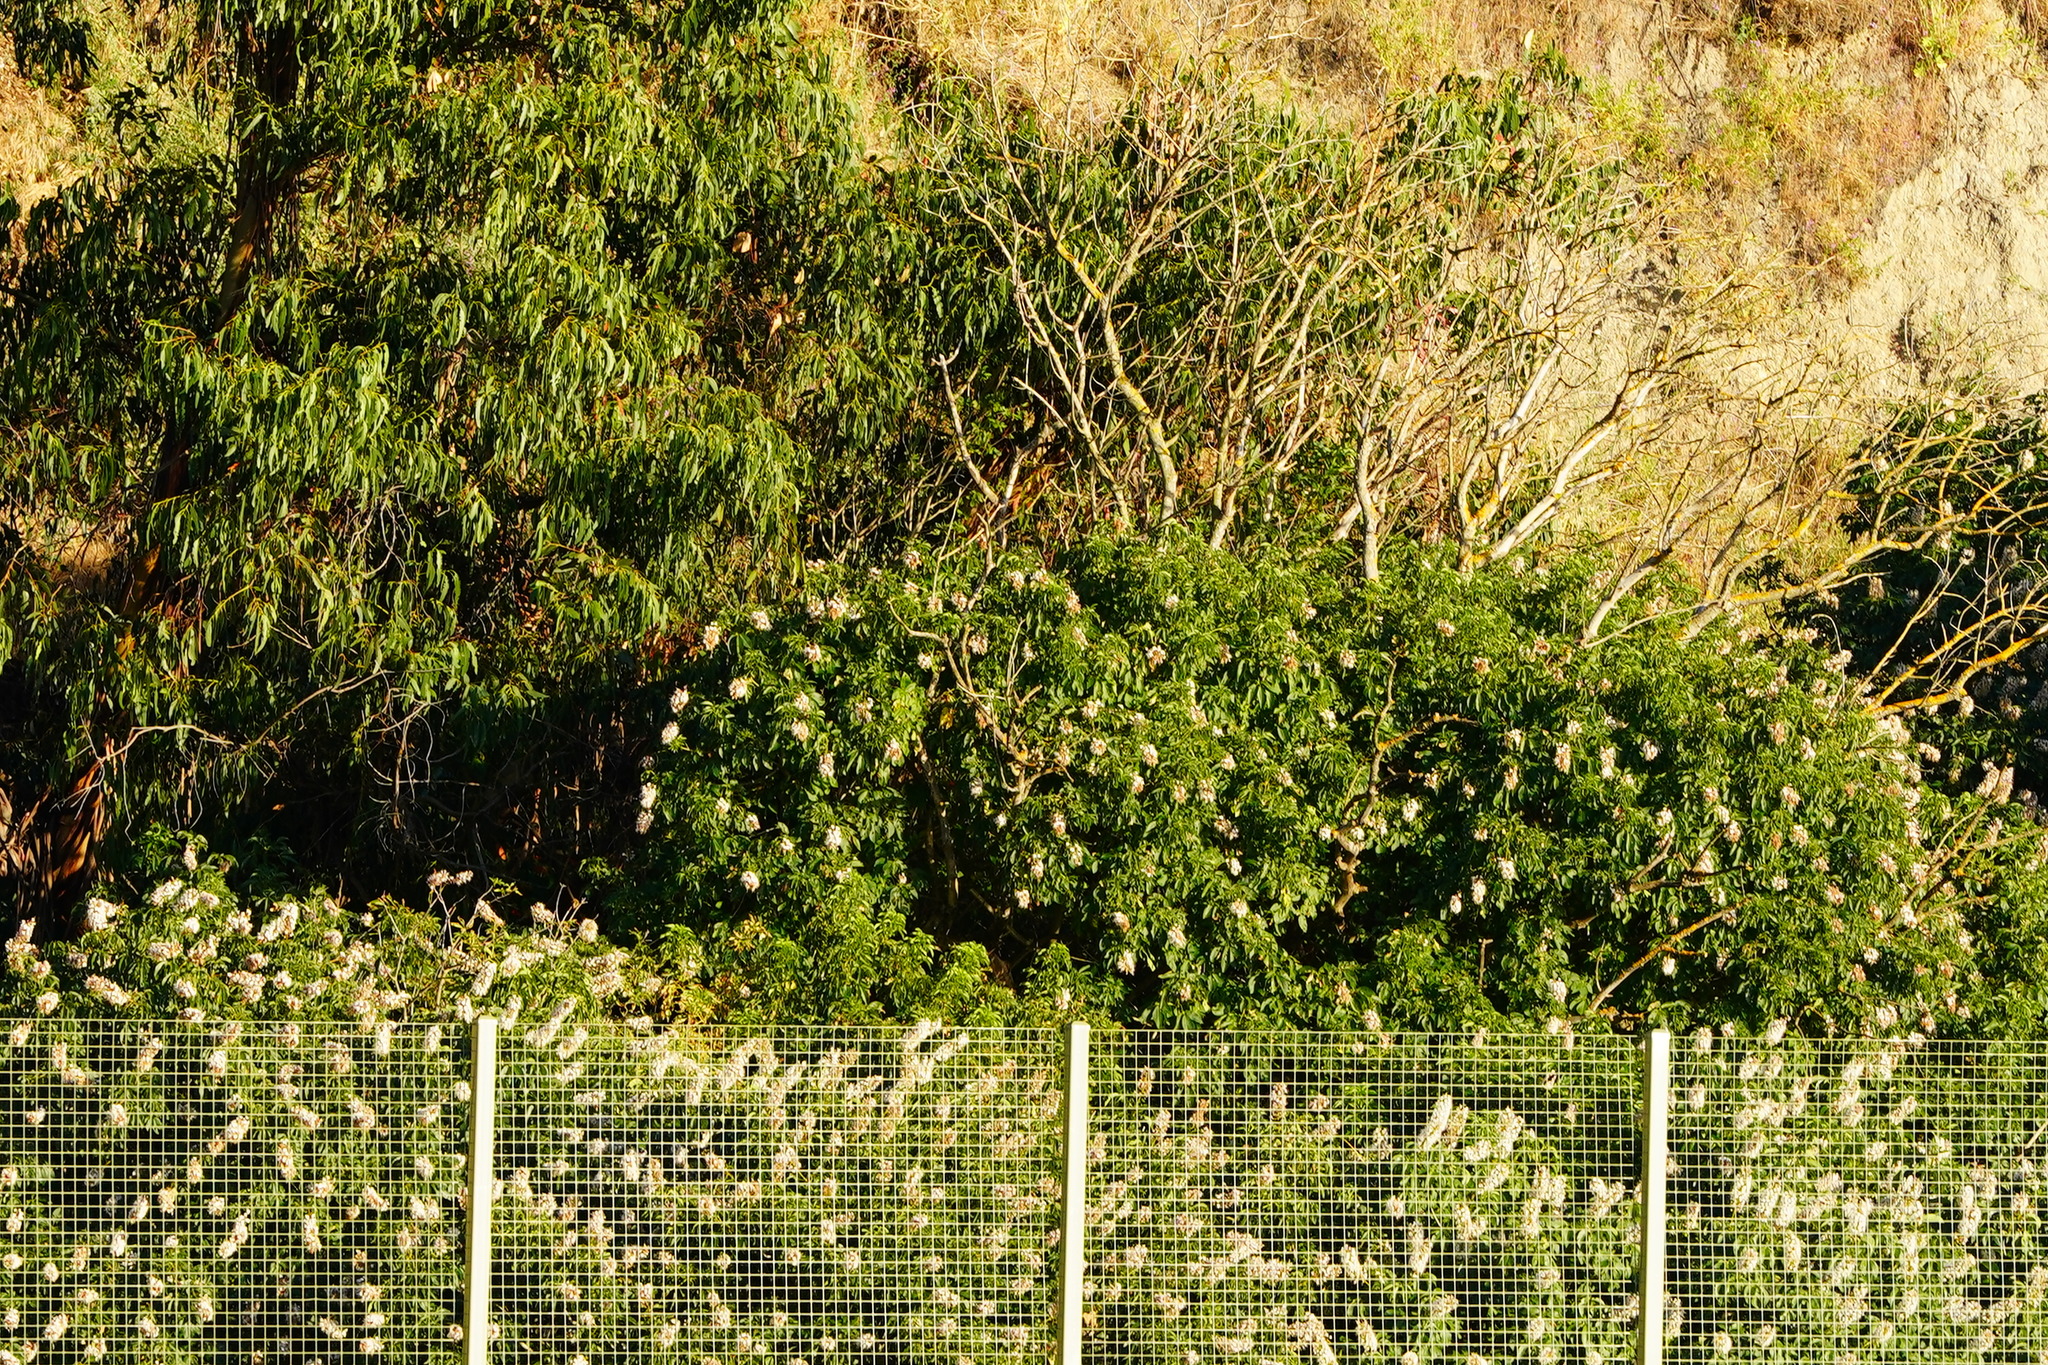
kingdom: Plantae
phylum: Tracheophyta
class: Magnoliopsida
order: Sapindales
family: Sapindaceae
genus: Aesculus
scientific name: Aesculus californica
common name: California buckeye
